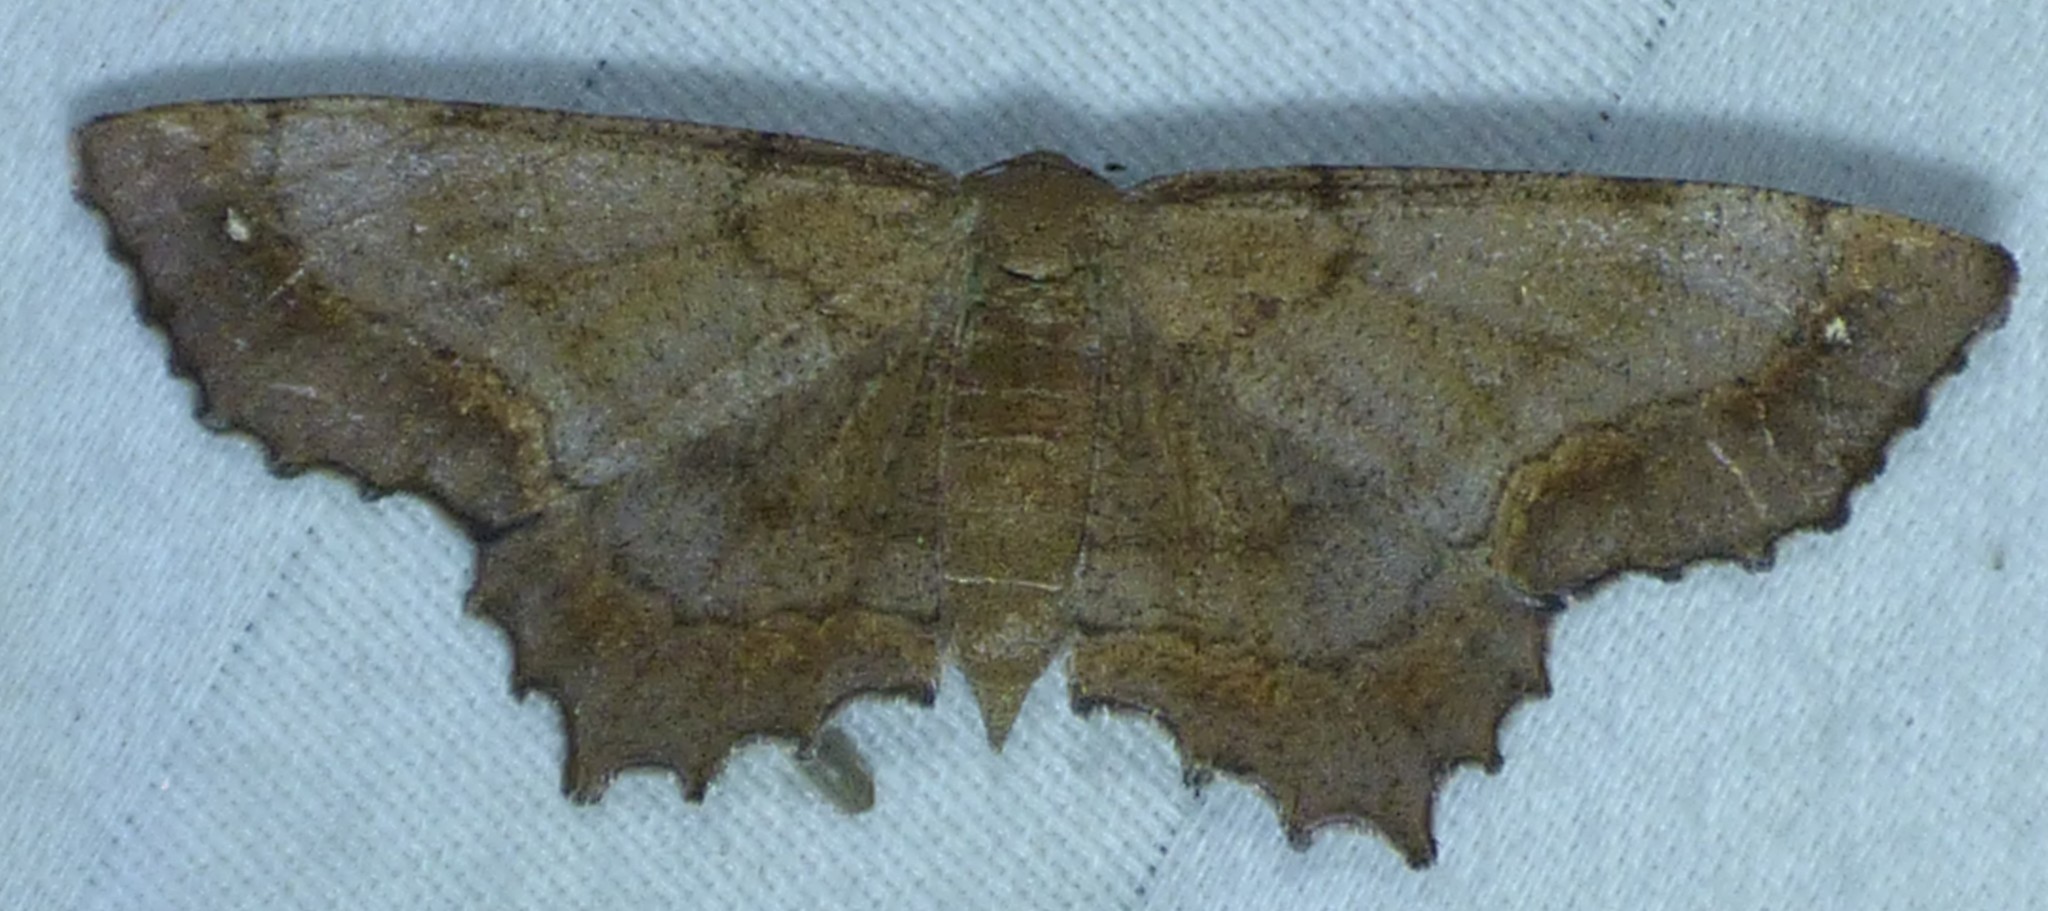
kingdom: Animalia
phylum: Arthropoda
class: Insecta
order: Lepidoptera
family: Geometridae
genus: Hypagyrtis
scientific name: Hypagyrtis esther
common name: Esther moth
